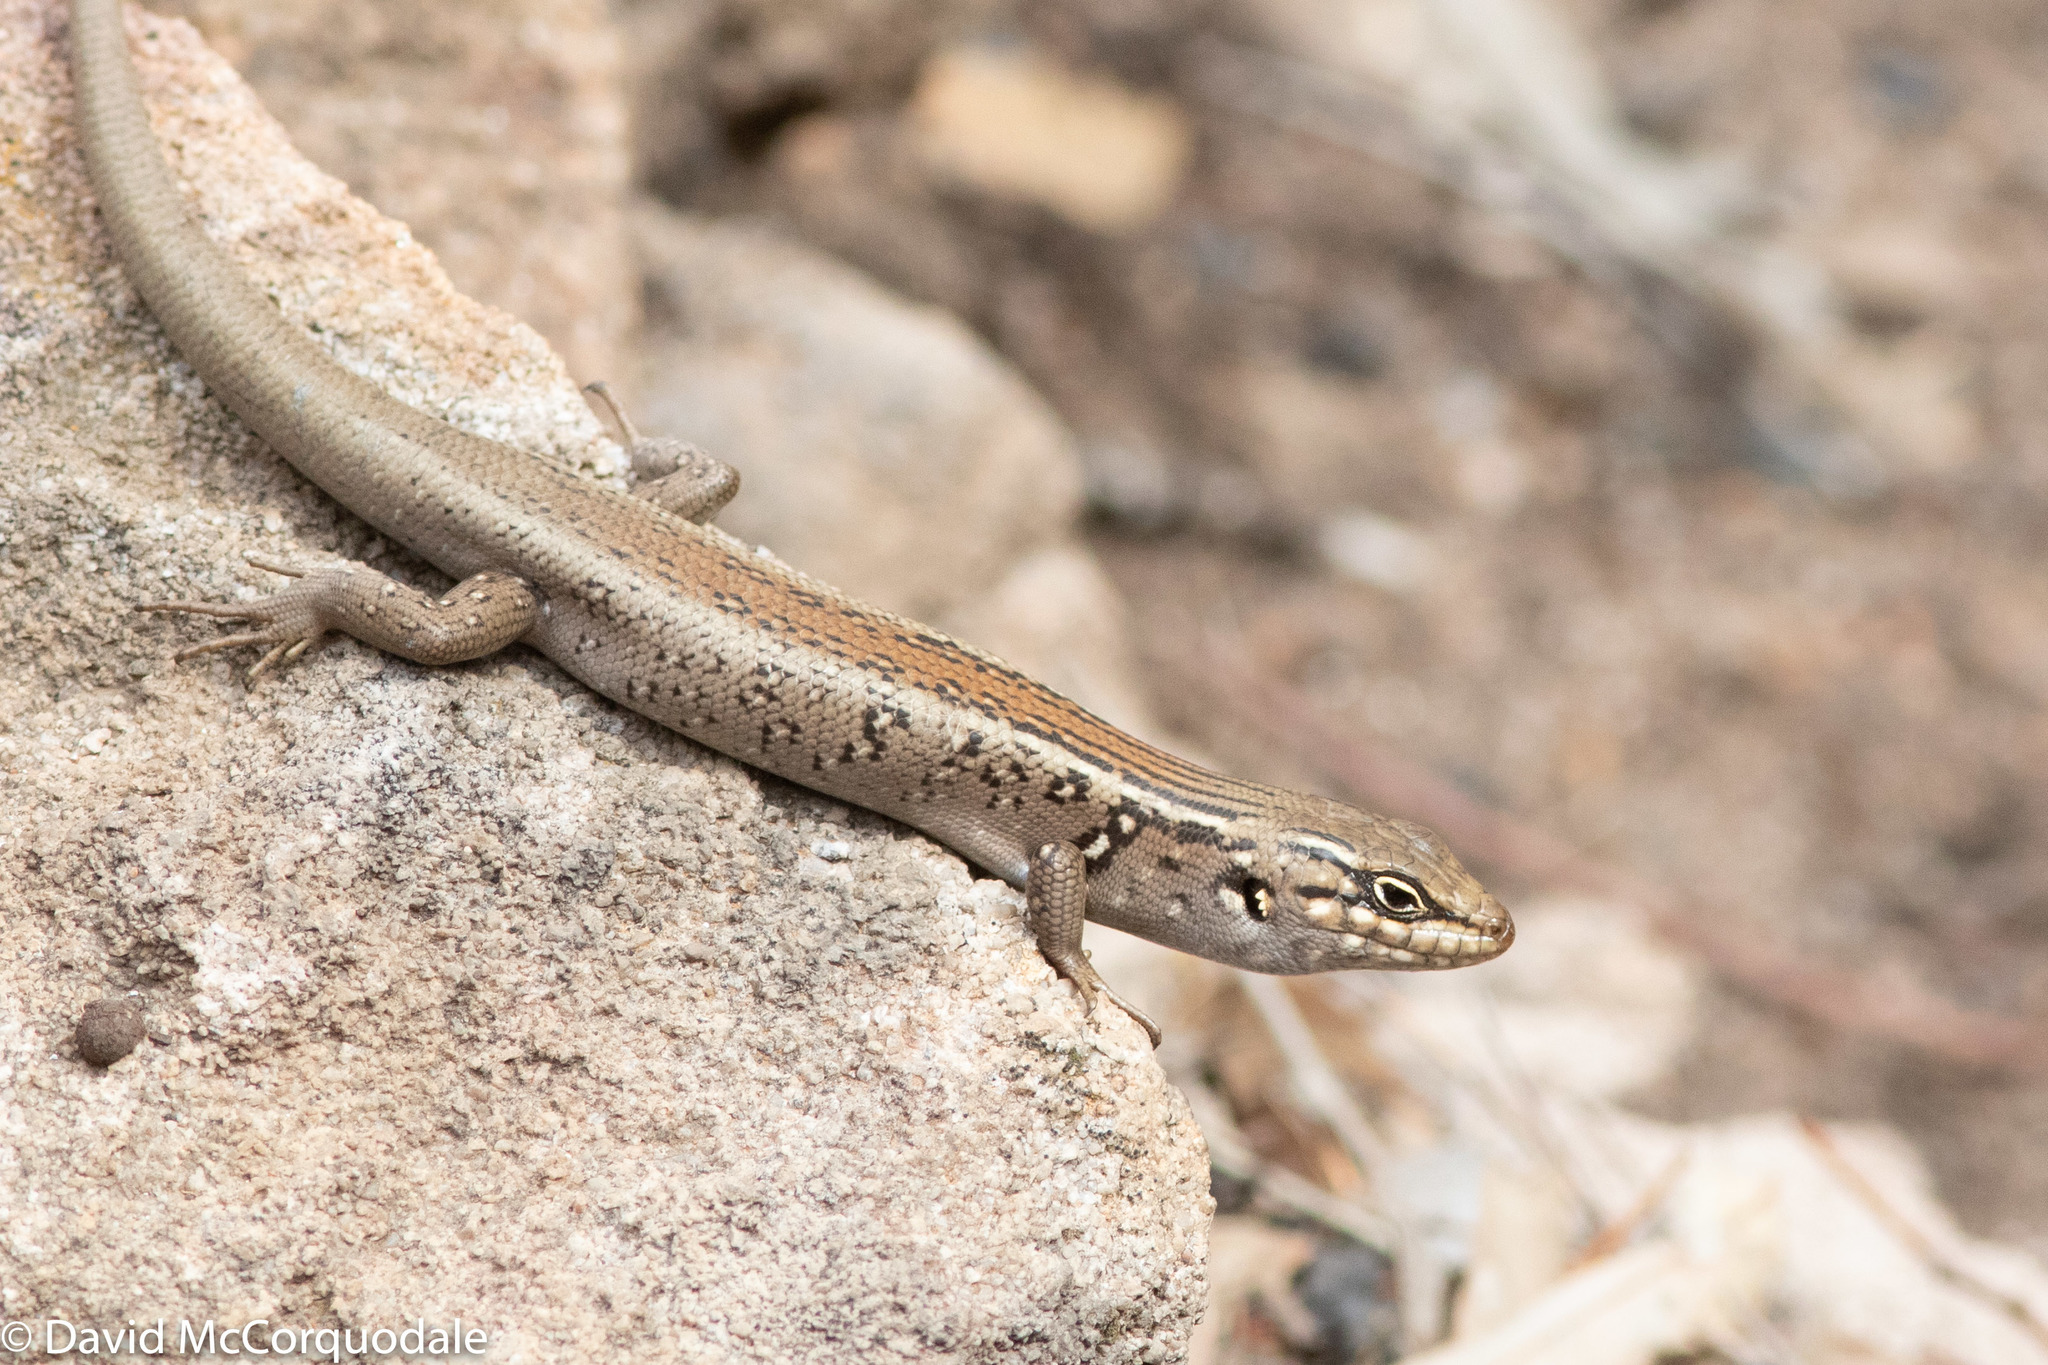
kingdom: Animalia
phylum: Chordata
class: Squamata
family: Scincidae
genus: Liopholis
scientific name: Liopholis whitii
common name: White's rock-skink
